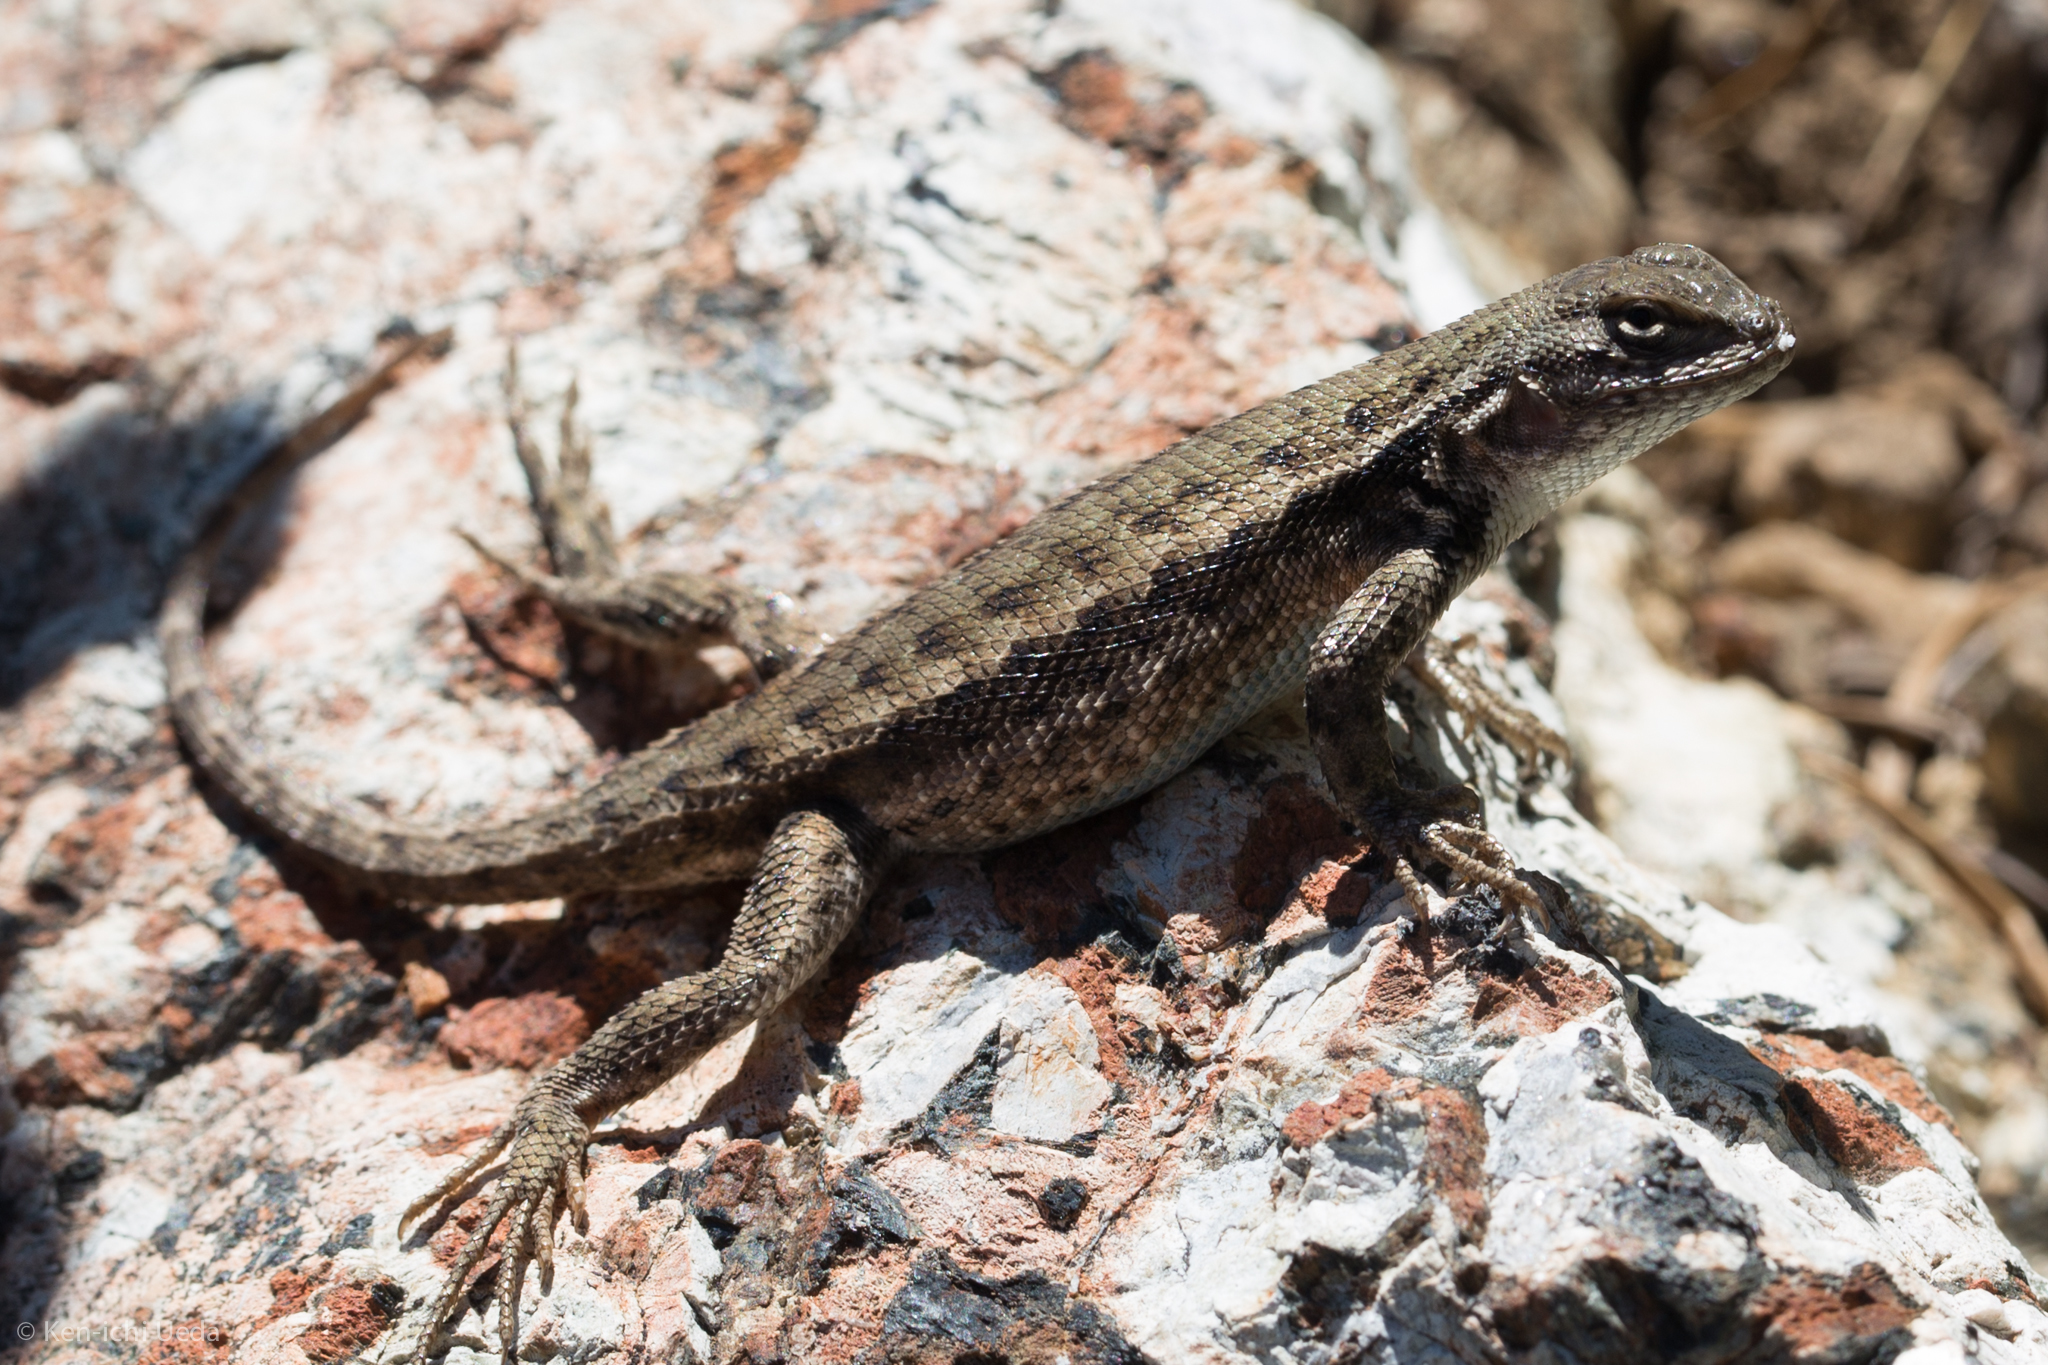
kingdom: Animalia
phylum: Chordata
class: Squamata
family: Phrynosomatidae
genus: Sceloporus
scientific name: Sceloporus graciosus
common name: Sagebrush lizard
